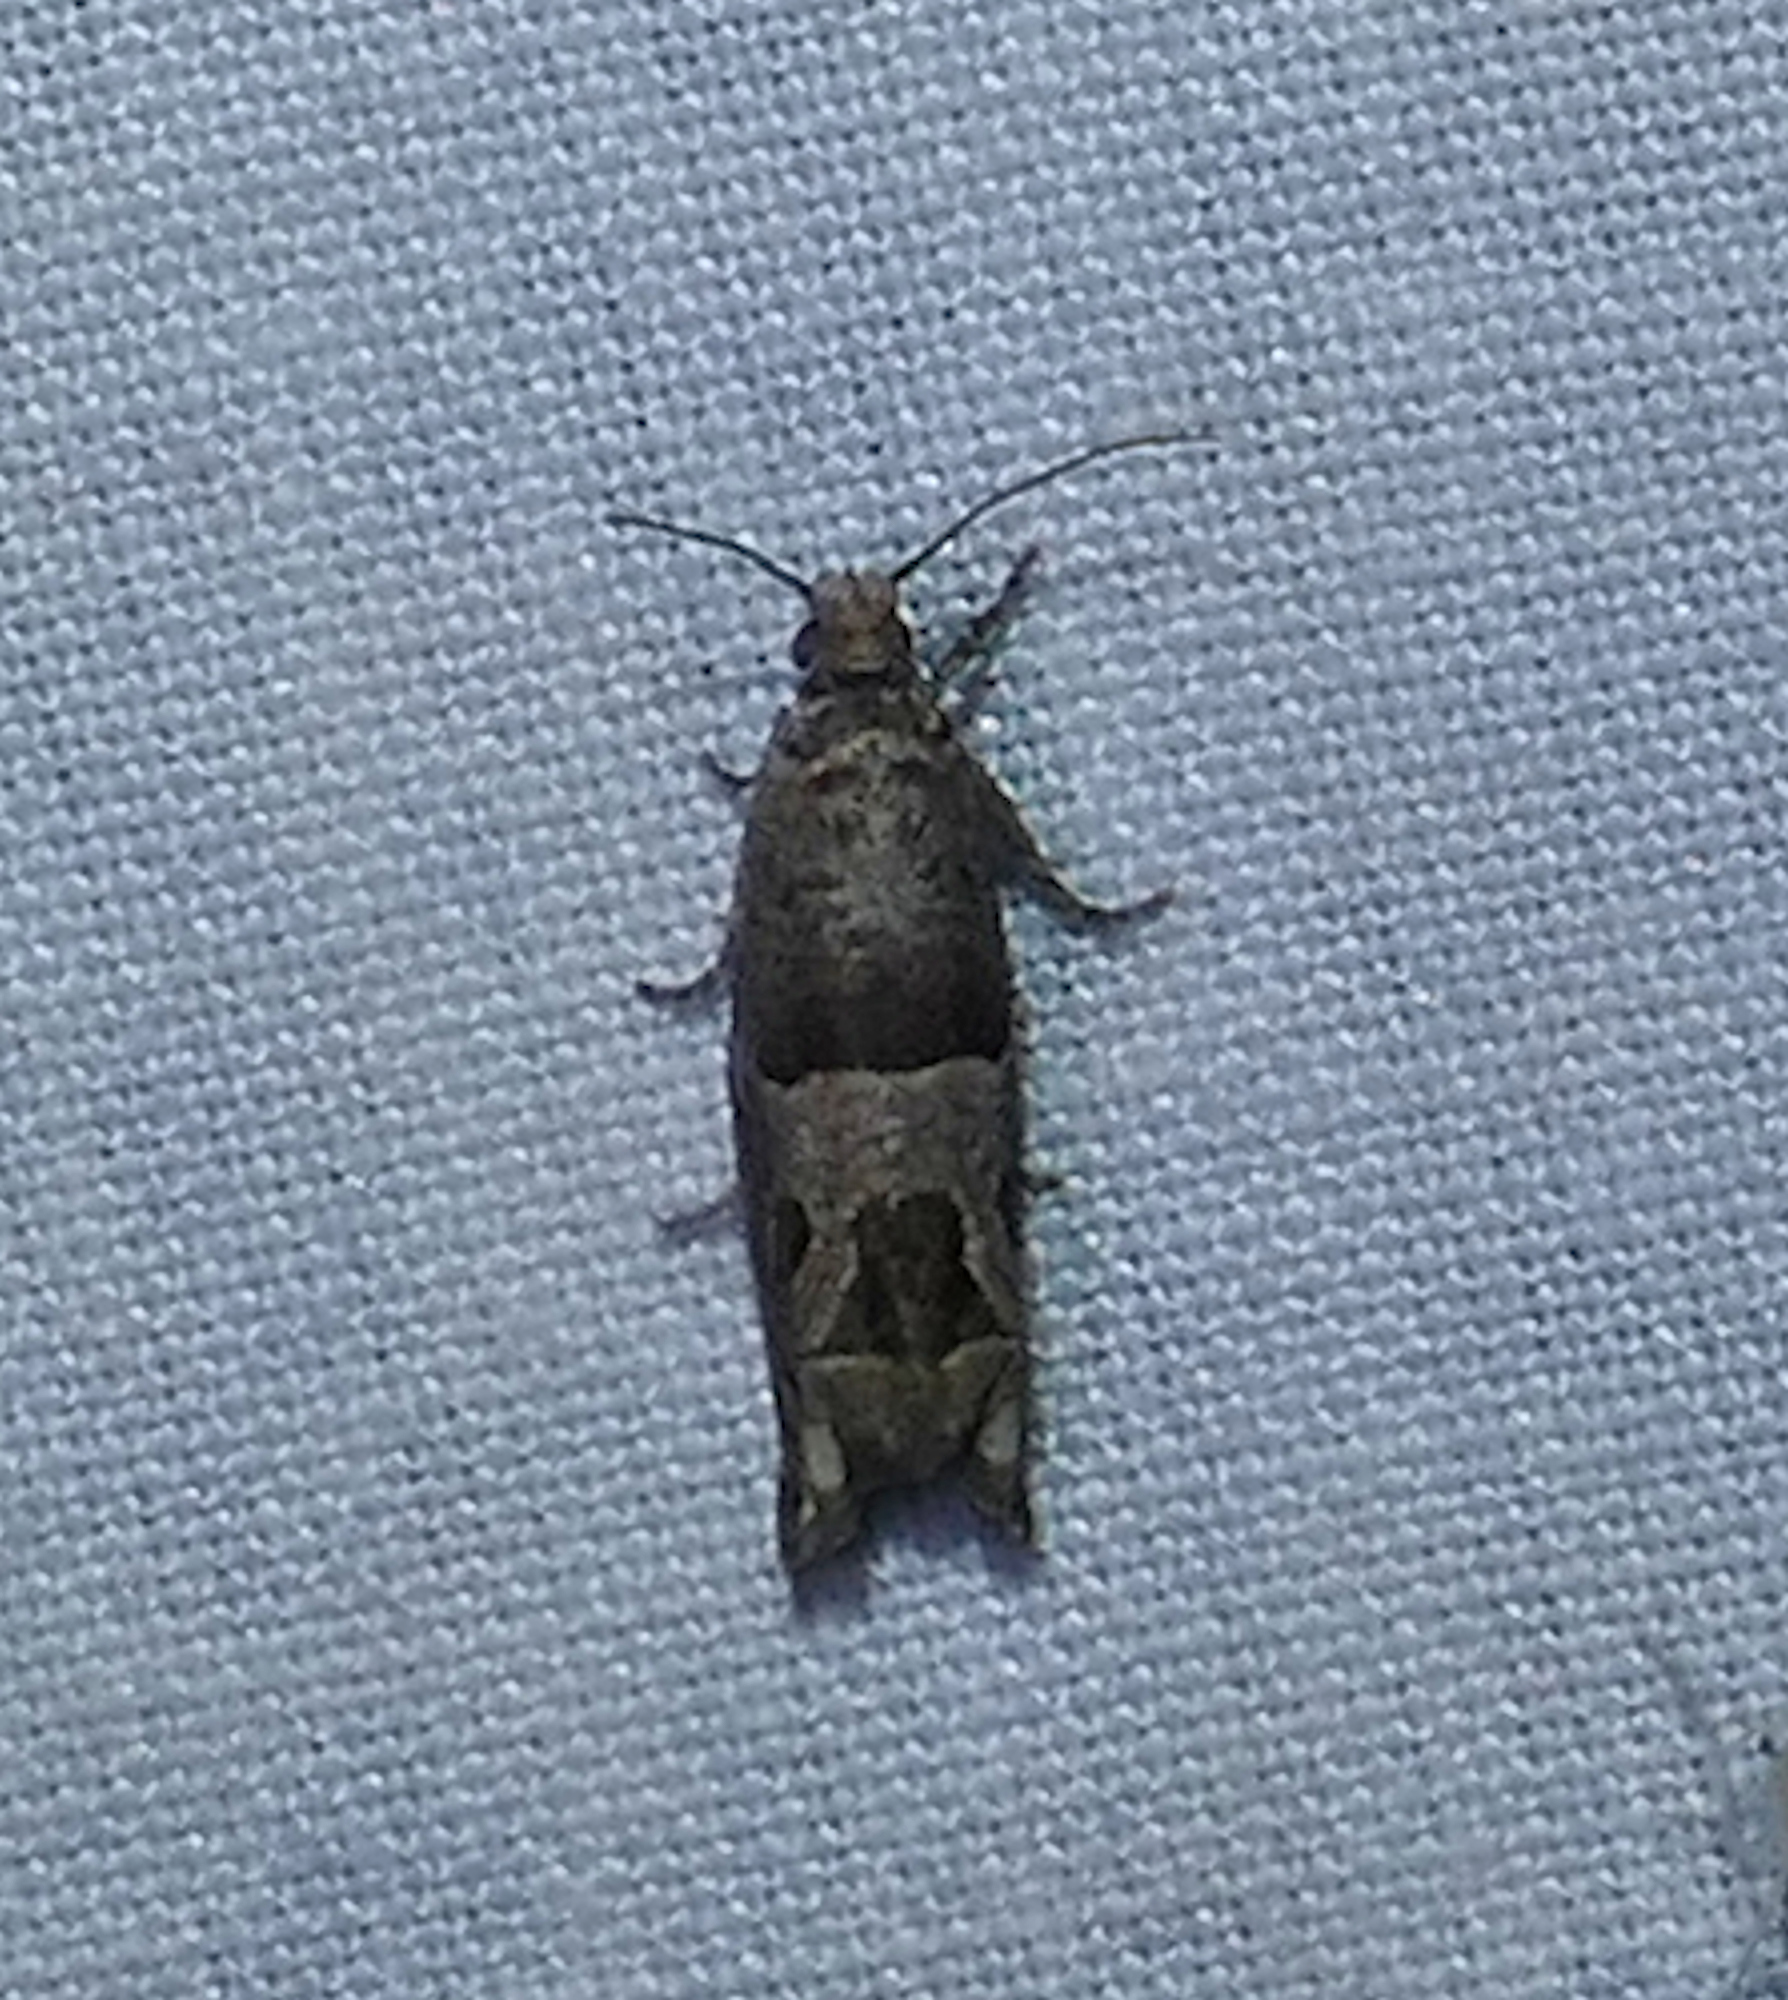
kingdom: Animalia
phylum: Arthropoda
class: Insecta
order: Lepidoptera
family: Tortricidae
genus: Sonia
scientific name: Sonia constrictana
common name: Constricted sonia moth
